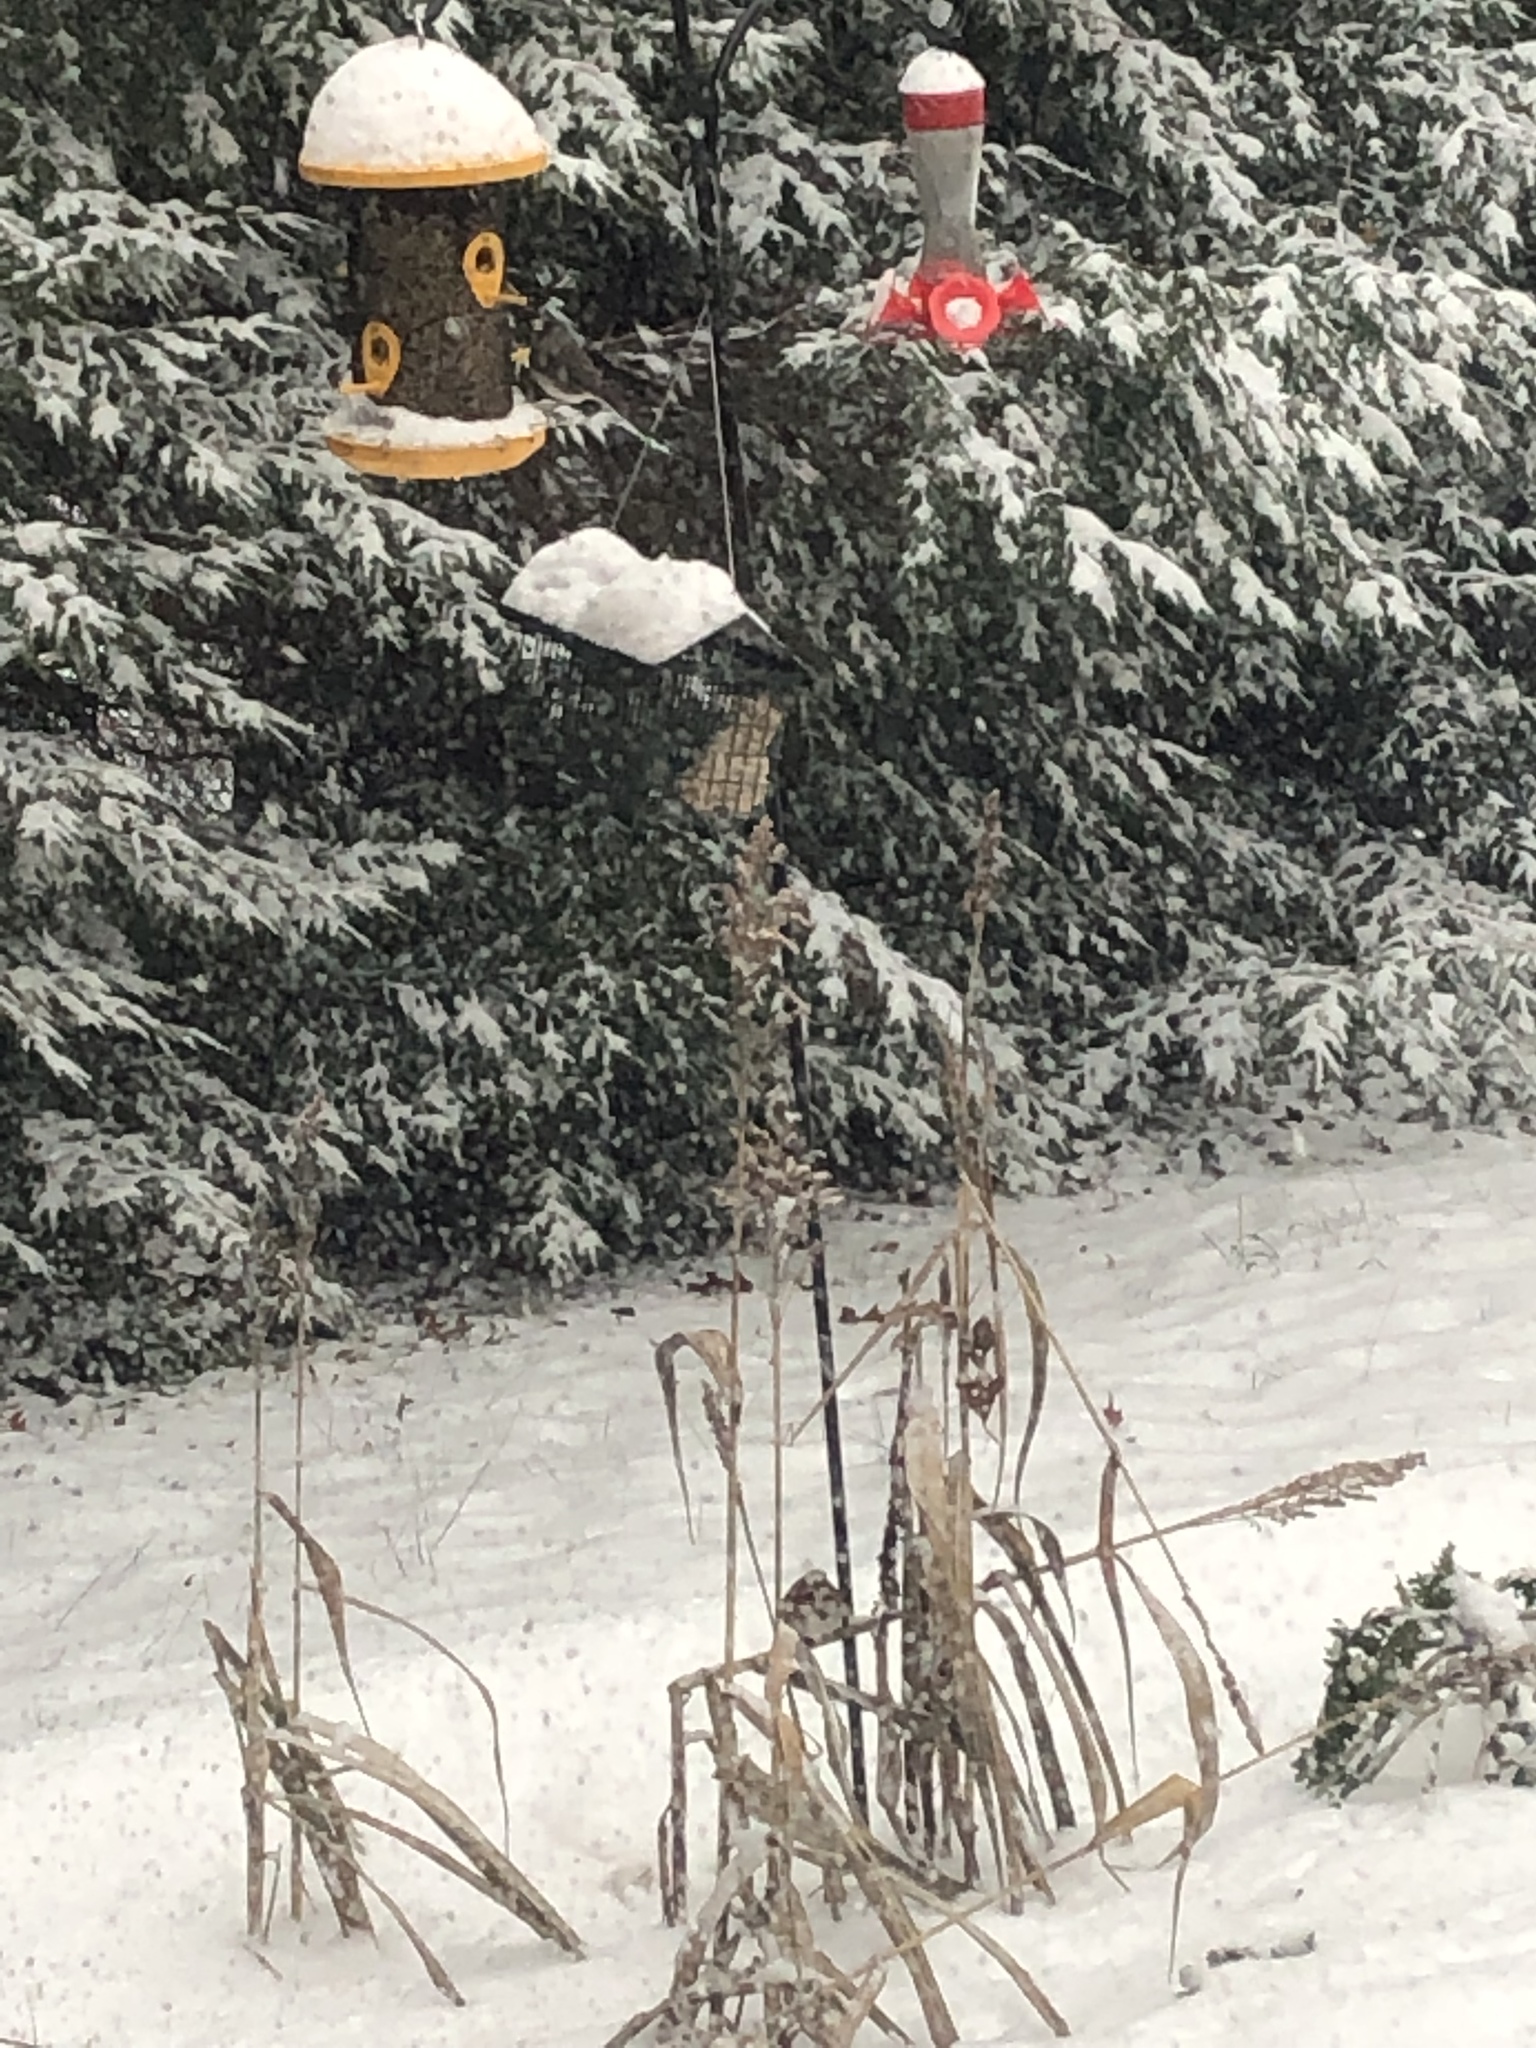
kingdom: Animalia
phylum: Chordata
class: Aves
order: Passeriformes
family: Passerellidae
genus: Junco
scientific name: Junco hyemalis
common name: Dark-eyed junco
